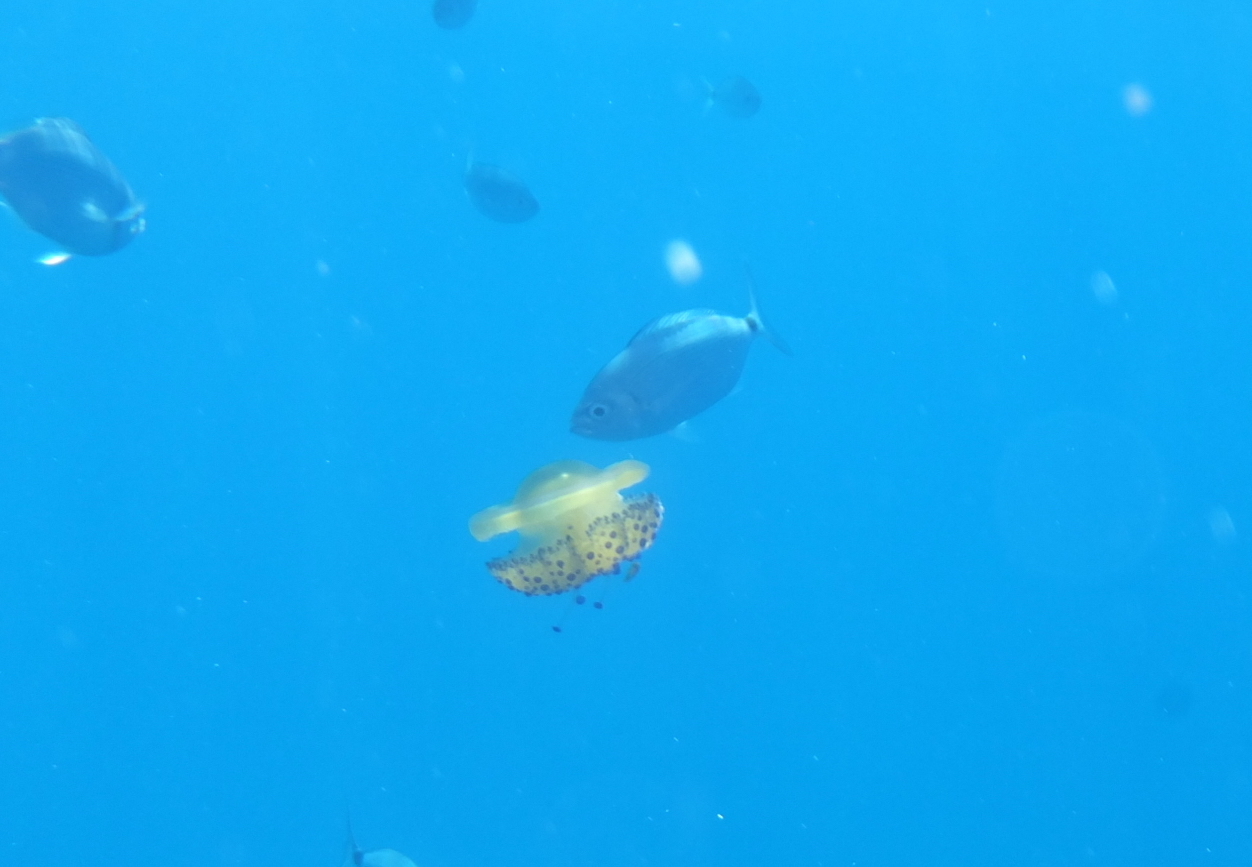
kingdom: Animalia
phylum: Cnidaria
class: Scyphozoa
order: Rhizostomeae
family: Cepheidae
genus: Cotylorhiza
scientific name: Cotylorhiza tuberculata
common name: Mediterranean jelly
